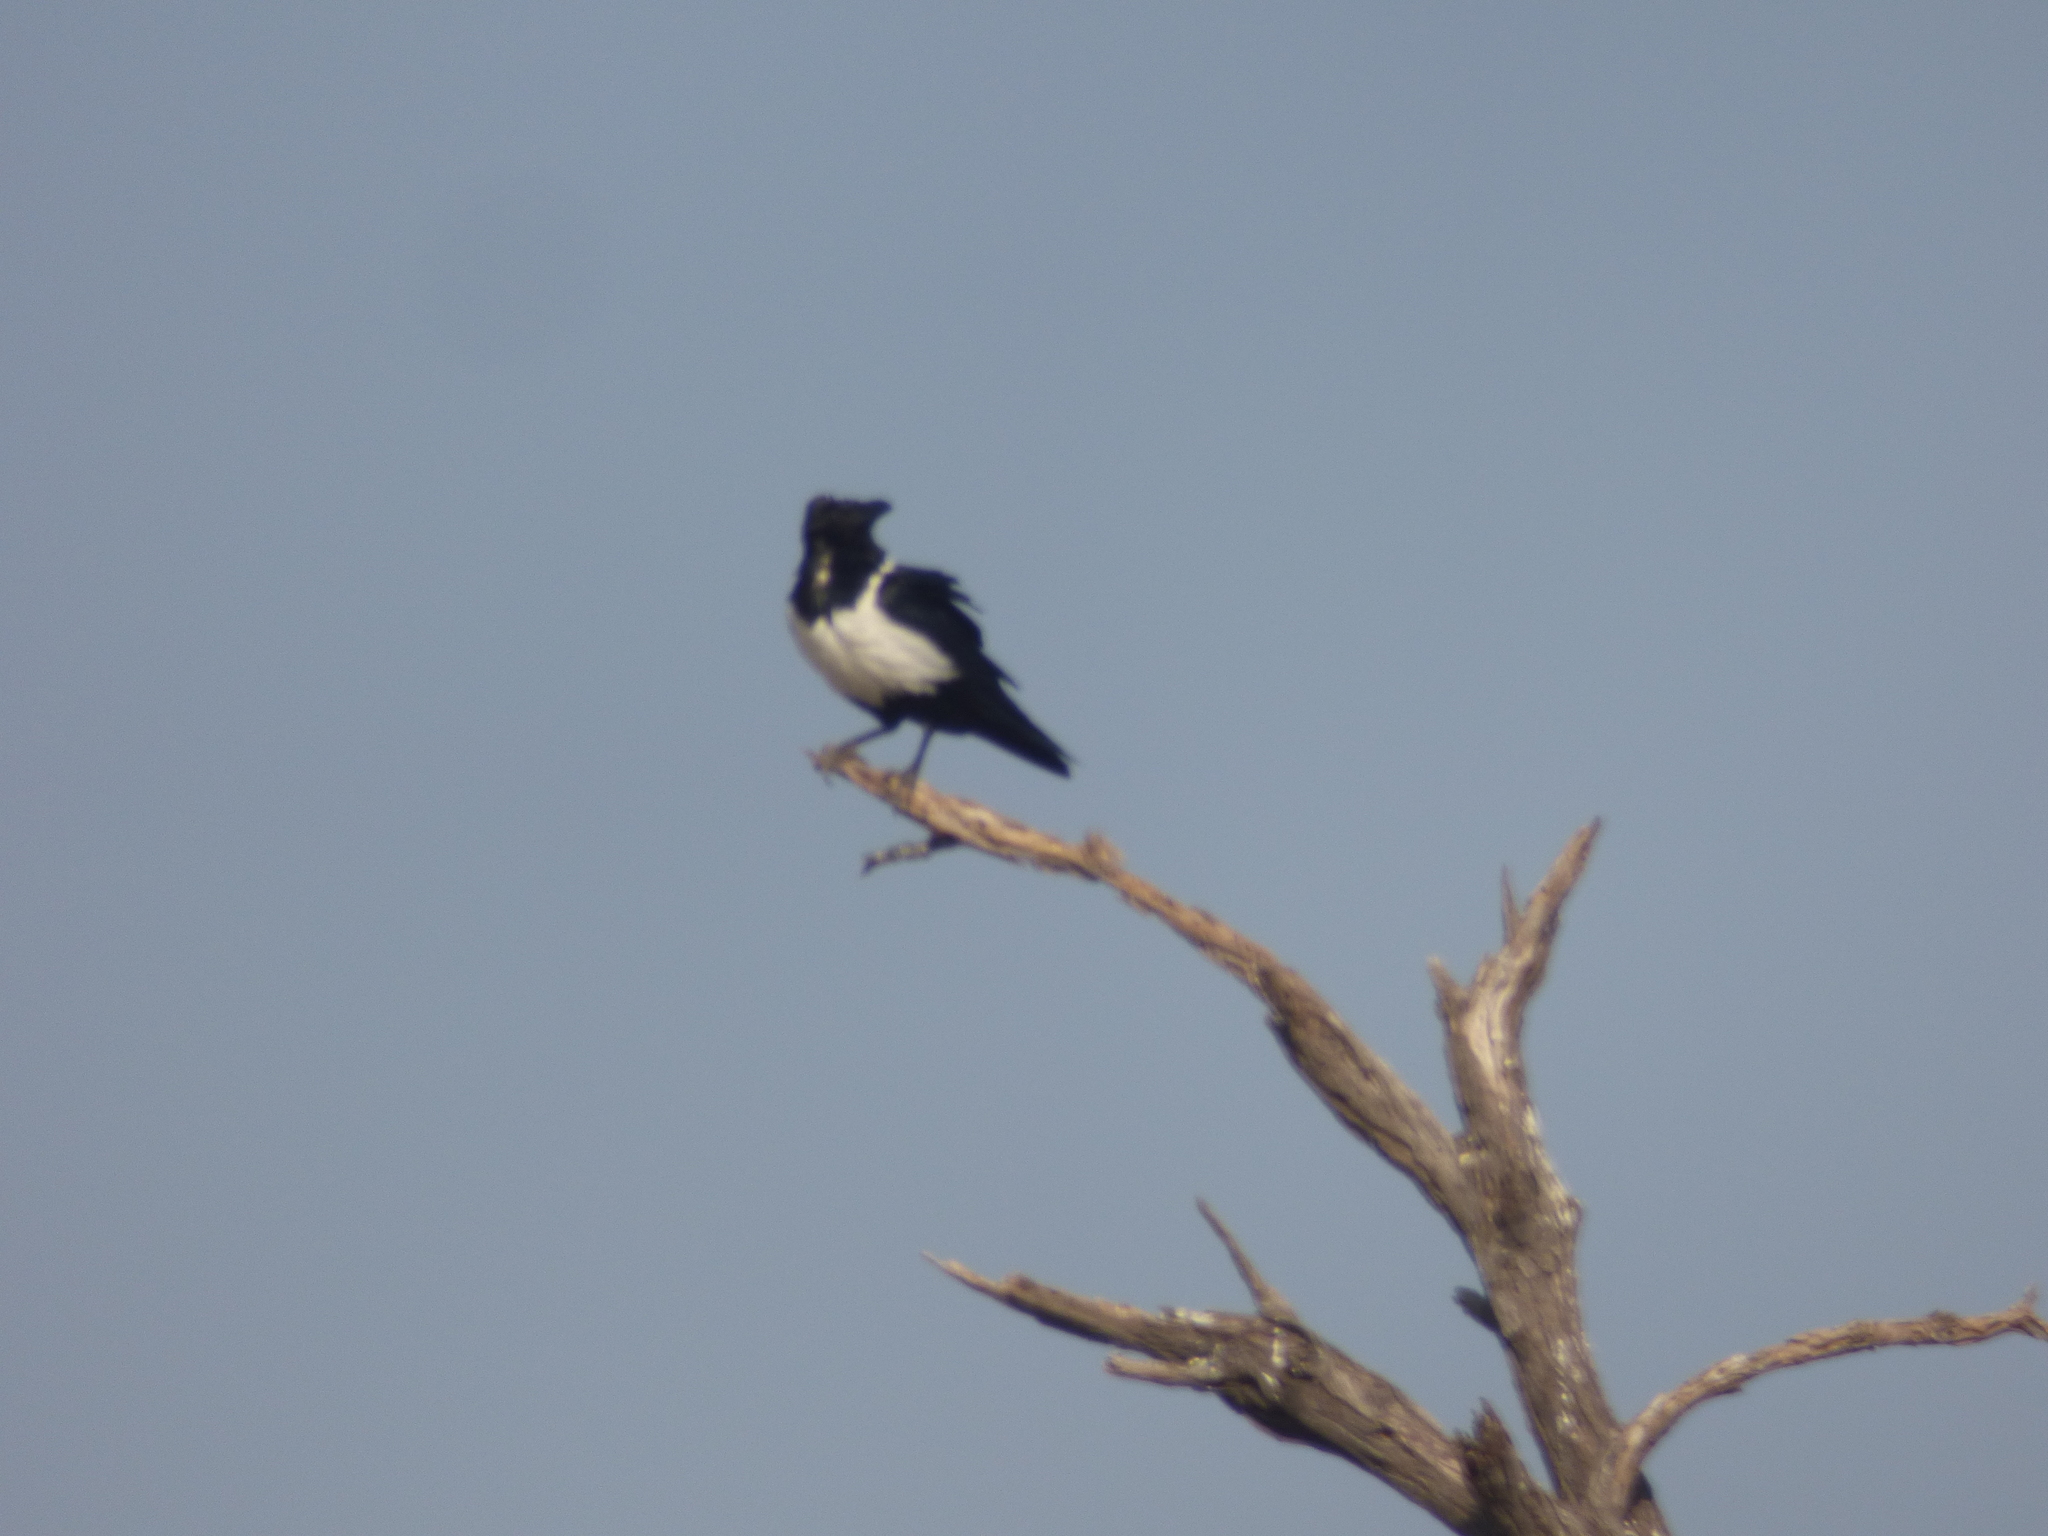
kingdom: Animalia
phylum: Chordata
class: Aves
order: Passeriformes
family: Corvidae
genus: Corvus
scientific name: Corvus albus
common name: Pied crow
